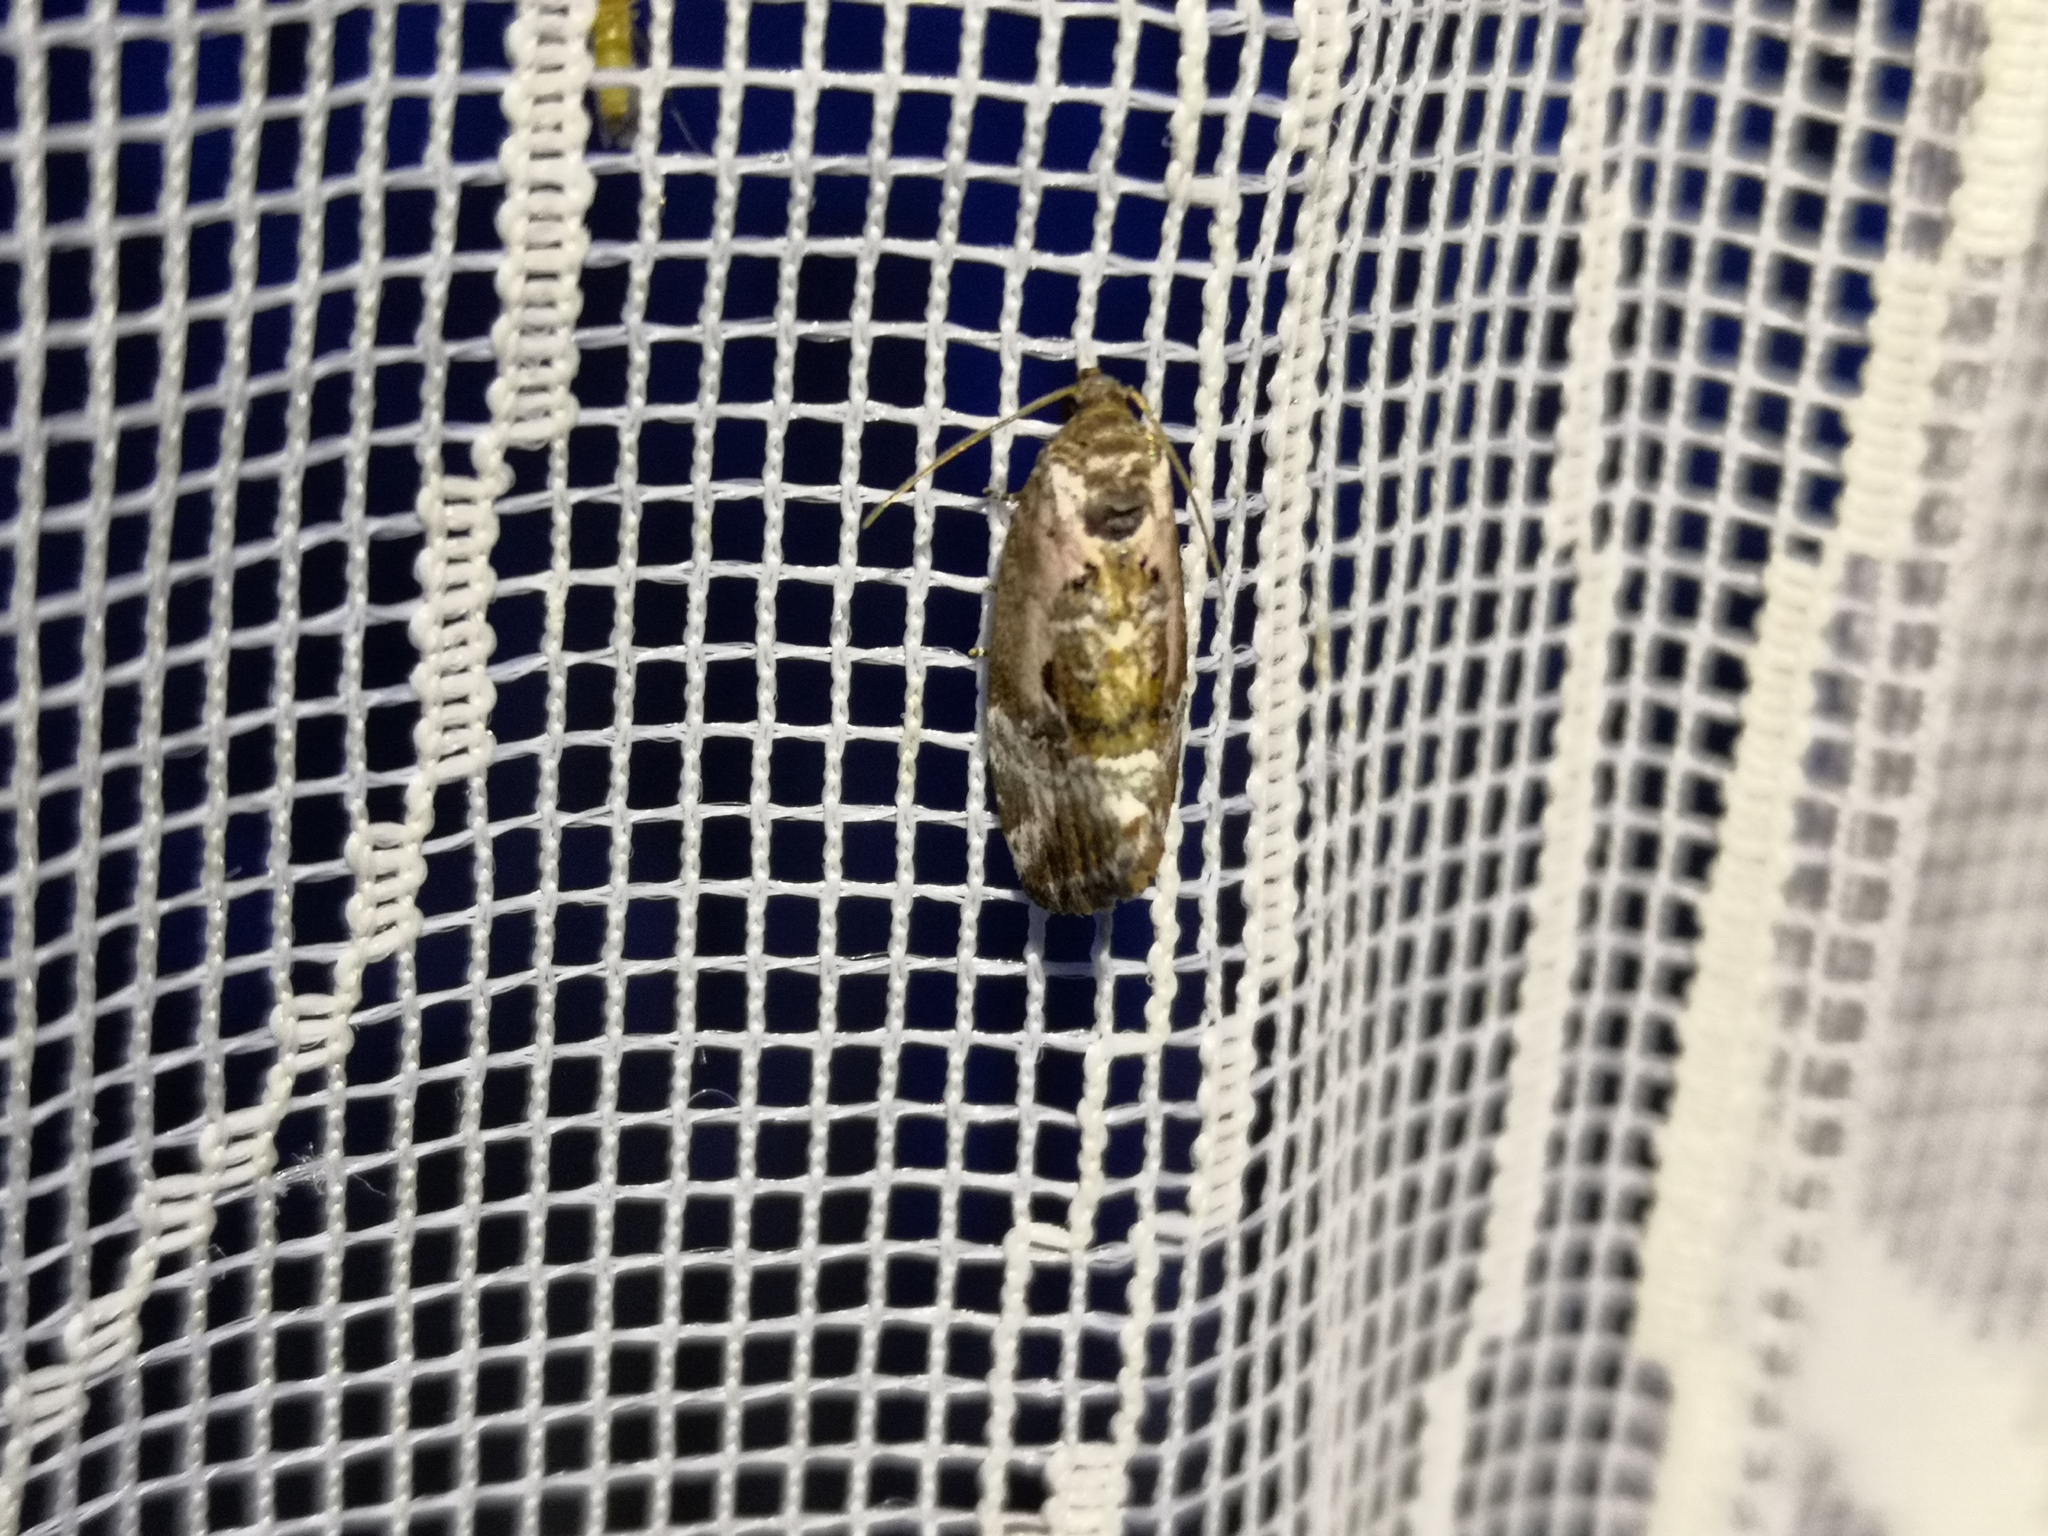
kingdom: Animalia
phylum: Arthropoda
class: Insecta
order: Lepidoptera
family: Noctuidae
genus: Elaphria
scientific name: Elaphria venustula
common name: Rosy marbled
